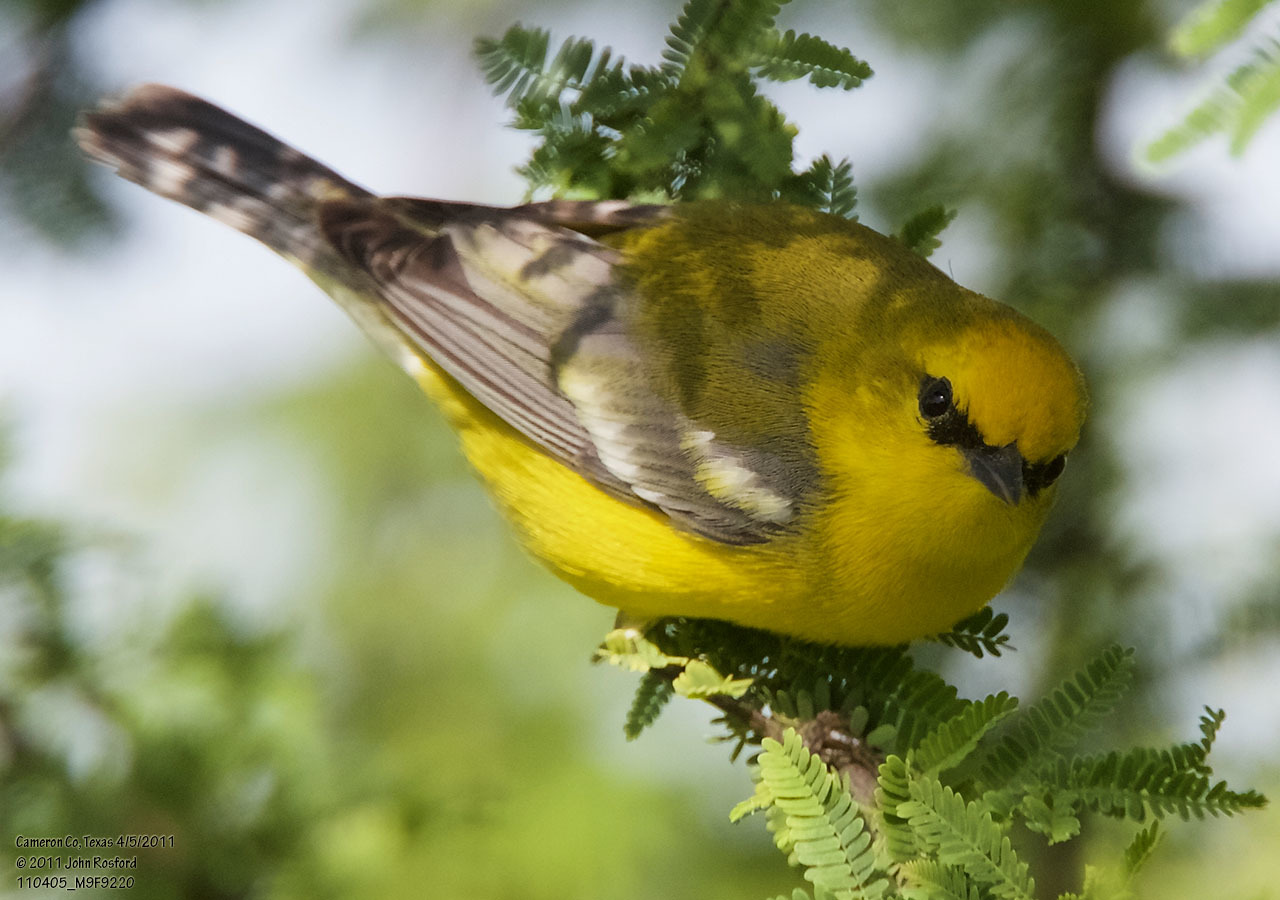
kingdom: Animalia
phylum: Chordata
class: Aves
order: Passeriformes
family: Parulidae
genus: Vermivora
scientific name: Vermivora cyanoptera
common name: Blue-winged warbler
